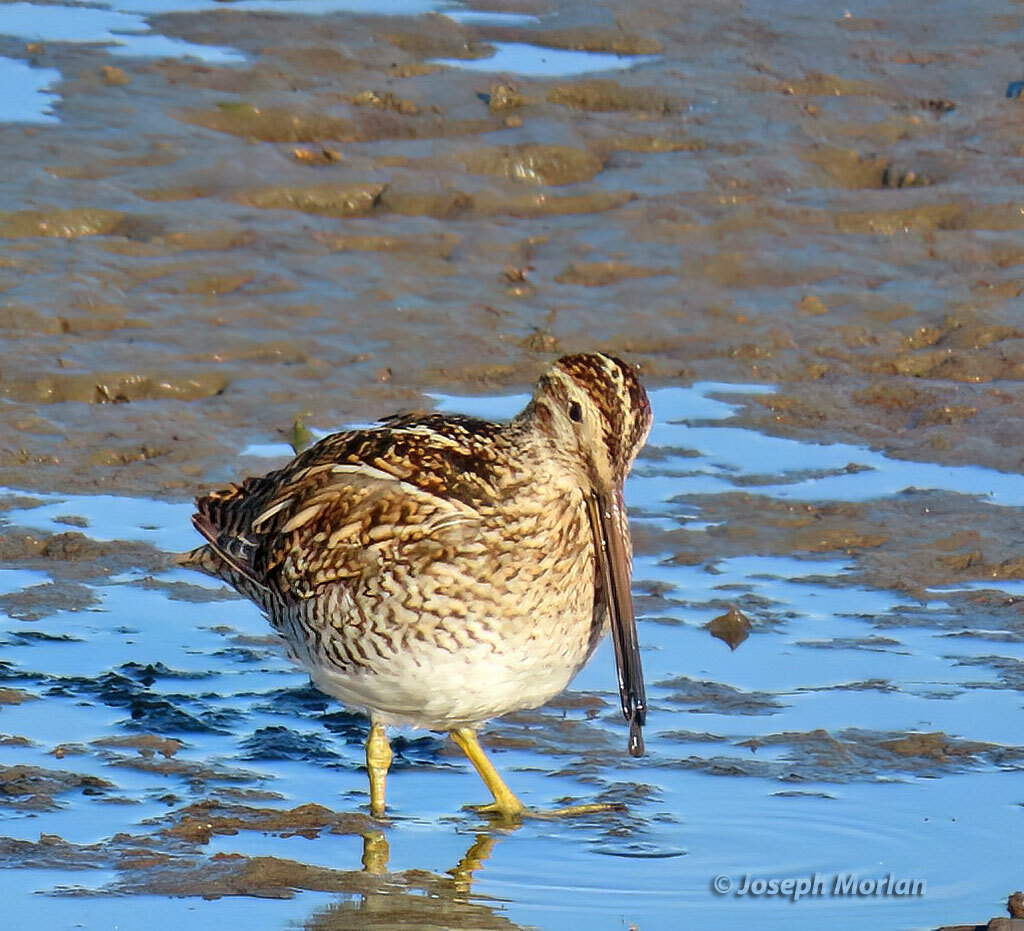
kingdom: Animalia
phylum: Chordata
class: Aves
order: Charadriiformes
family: Scolopacidae
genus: Gallinago
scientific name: Gallinago magellanica
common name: Magellanic snipe
